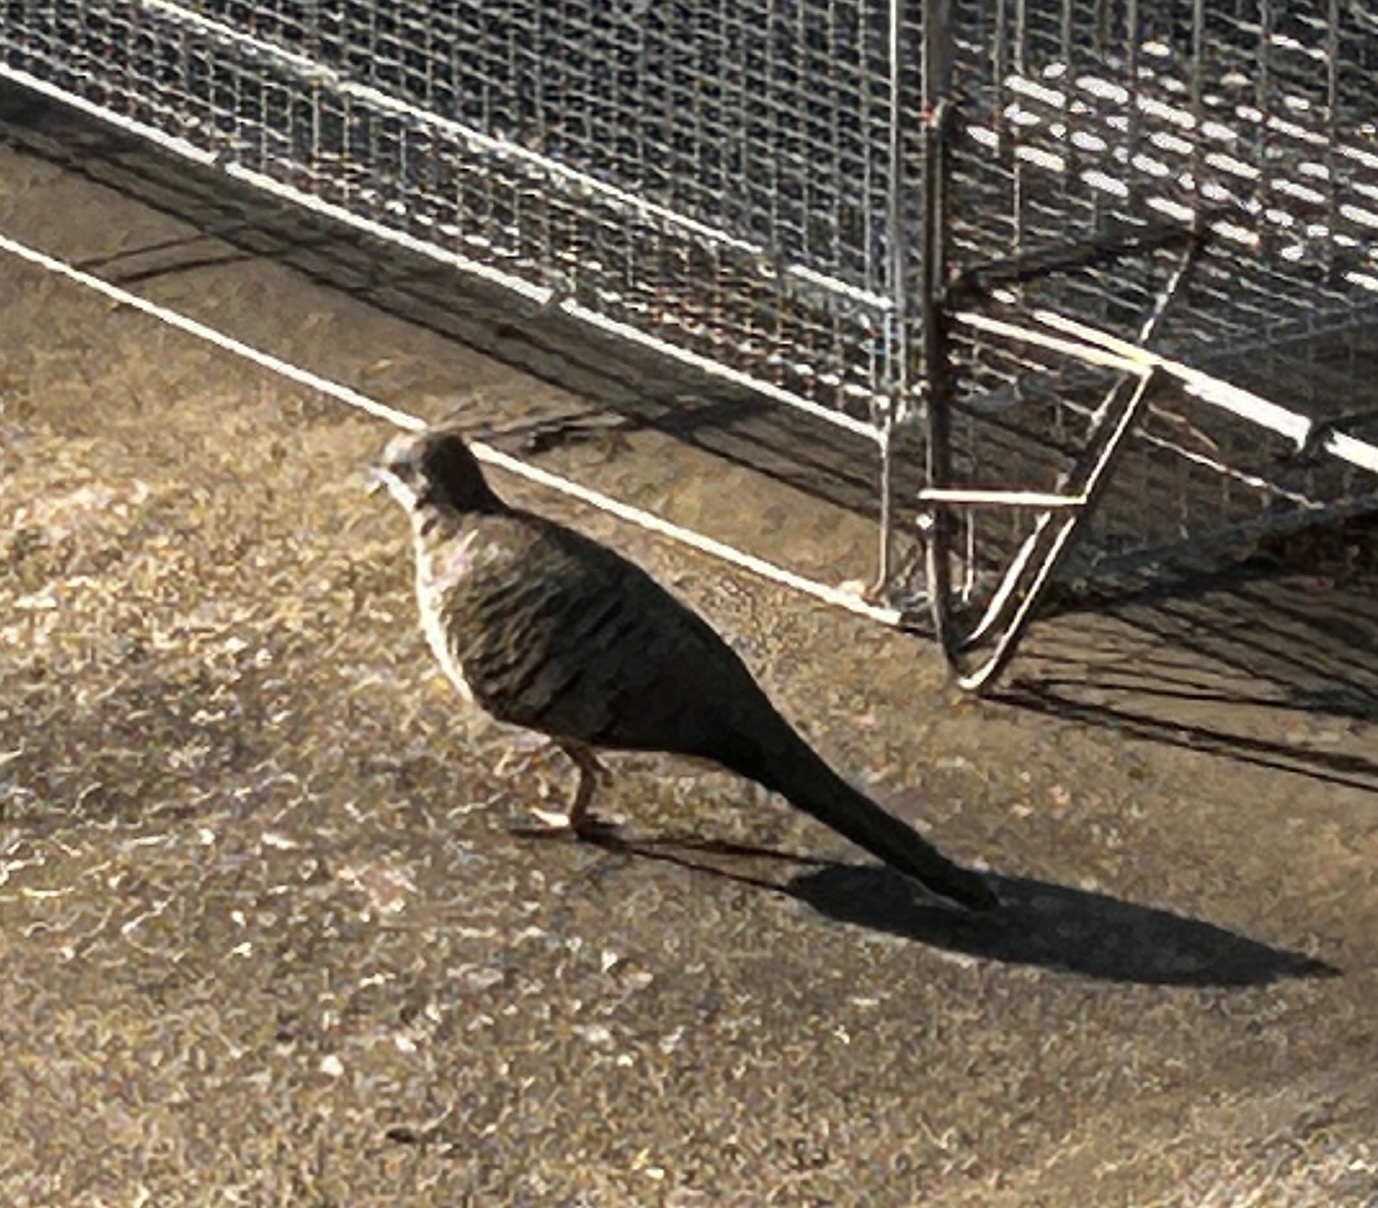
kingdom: Animalia
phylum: Chordata
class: Aves
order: Columbiformes
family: Columbidae
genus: Geopelia
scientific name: Geopelia striata
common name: Zebra dove
